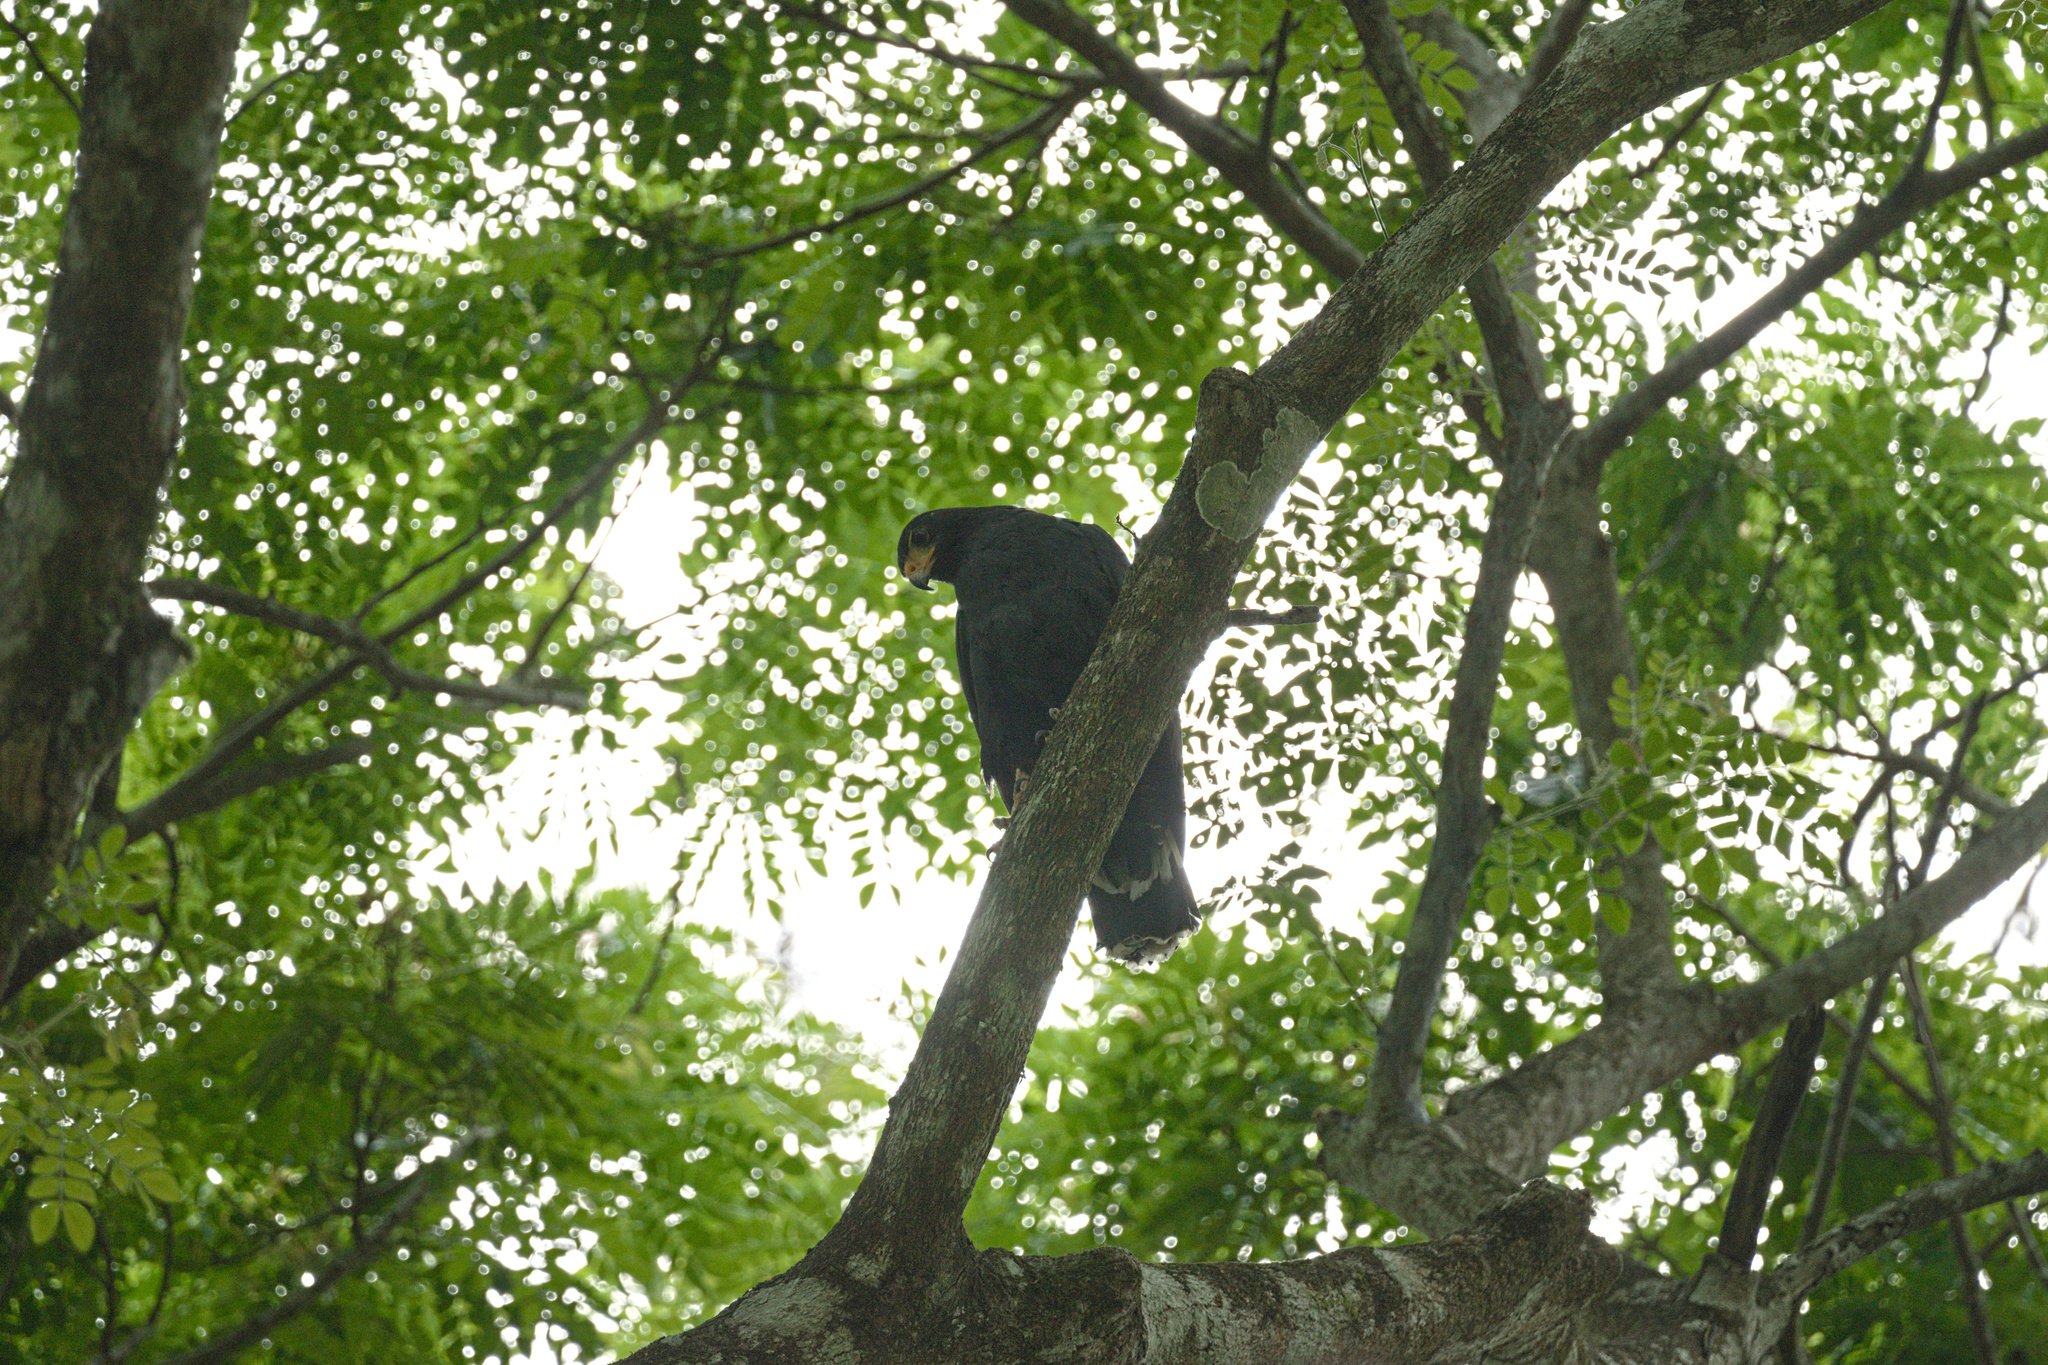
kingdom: Animalia
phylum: Chordata
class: Aves
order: Accipitriformes
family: Accipitridae
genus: Buteogallus
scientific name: Buteogallus anthracinus
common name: Common black hawk
